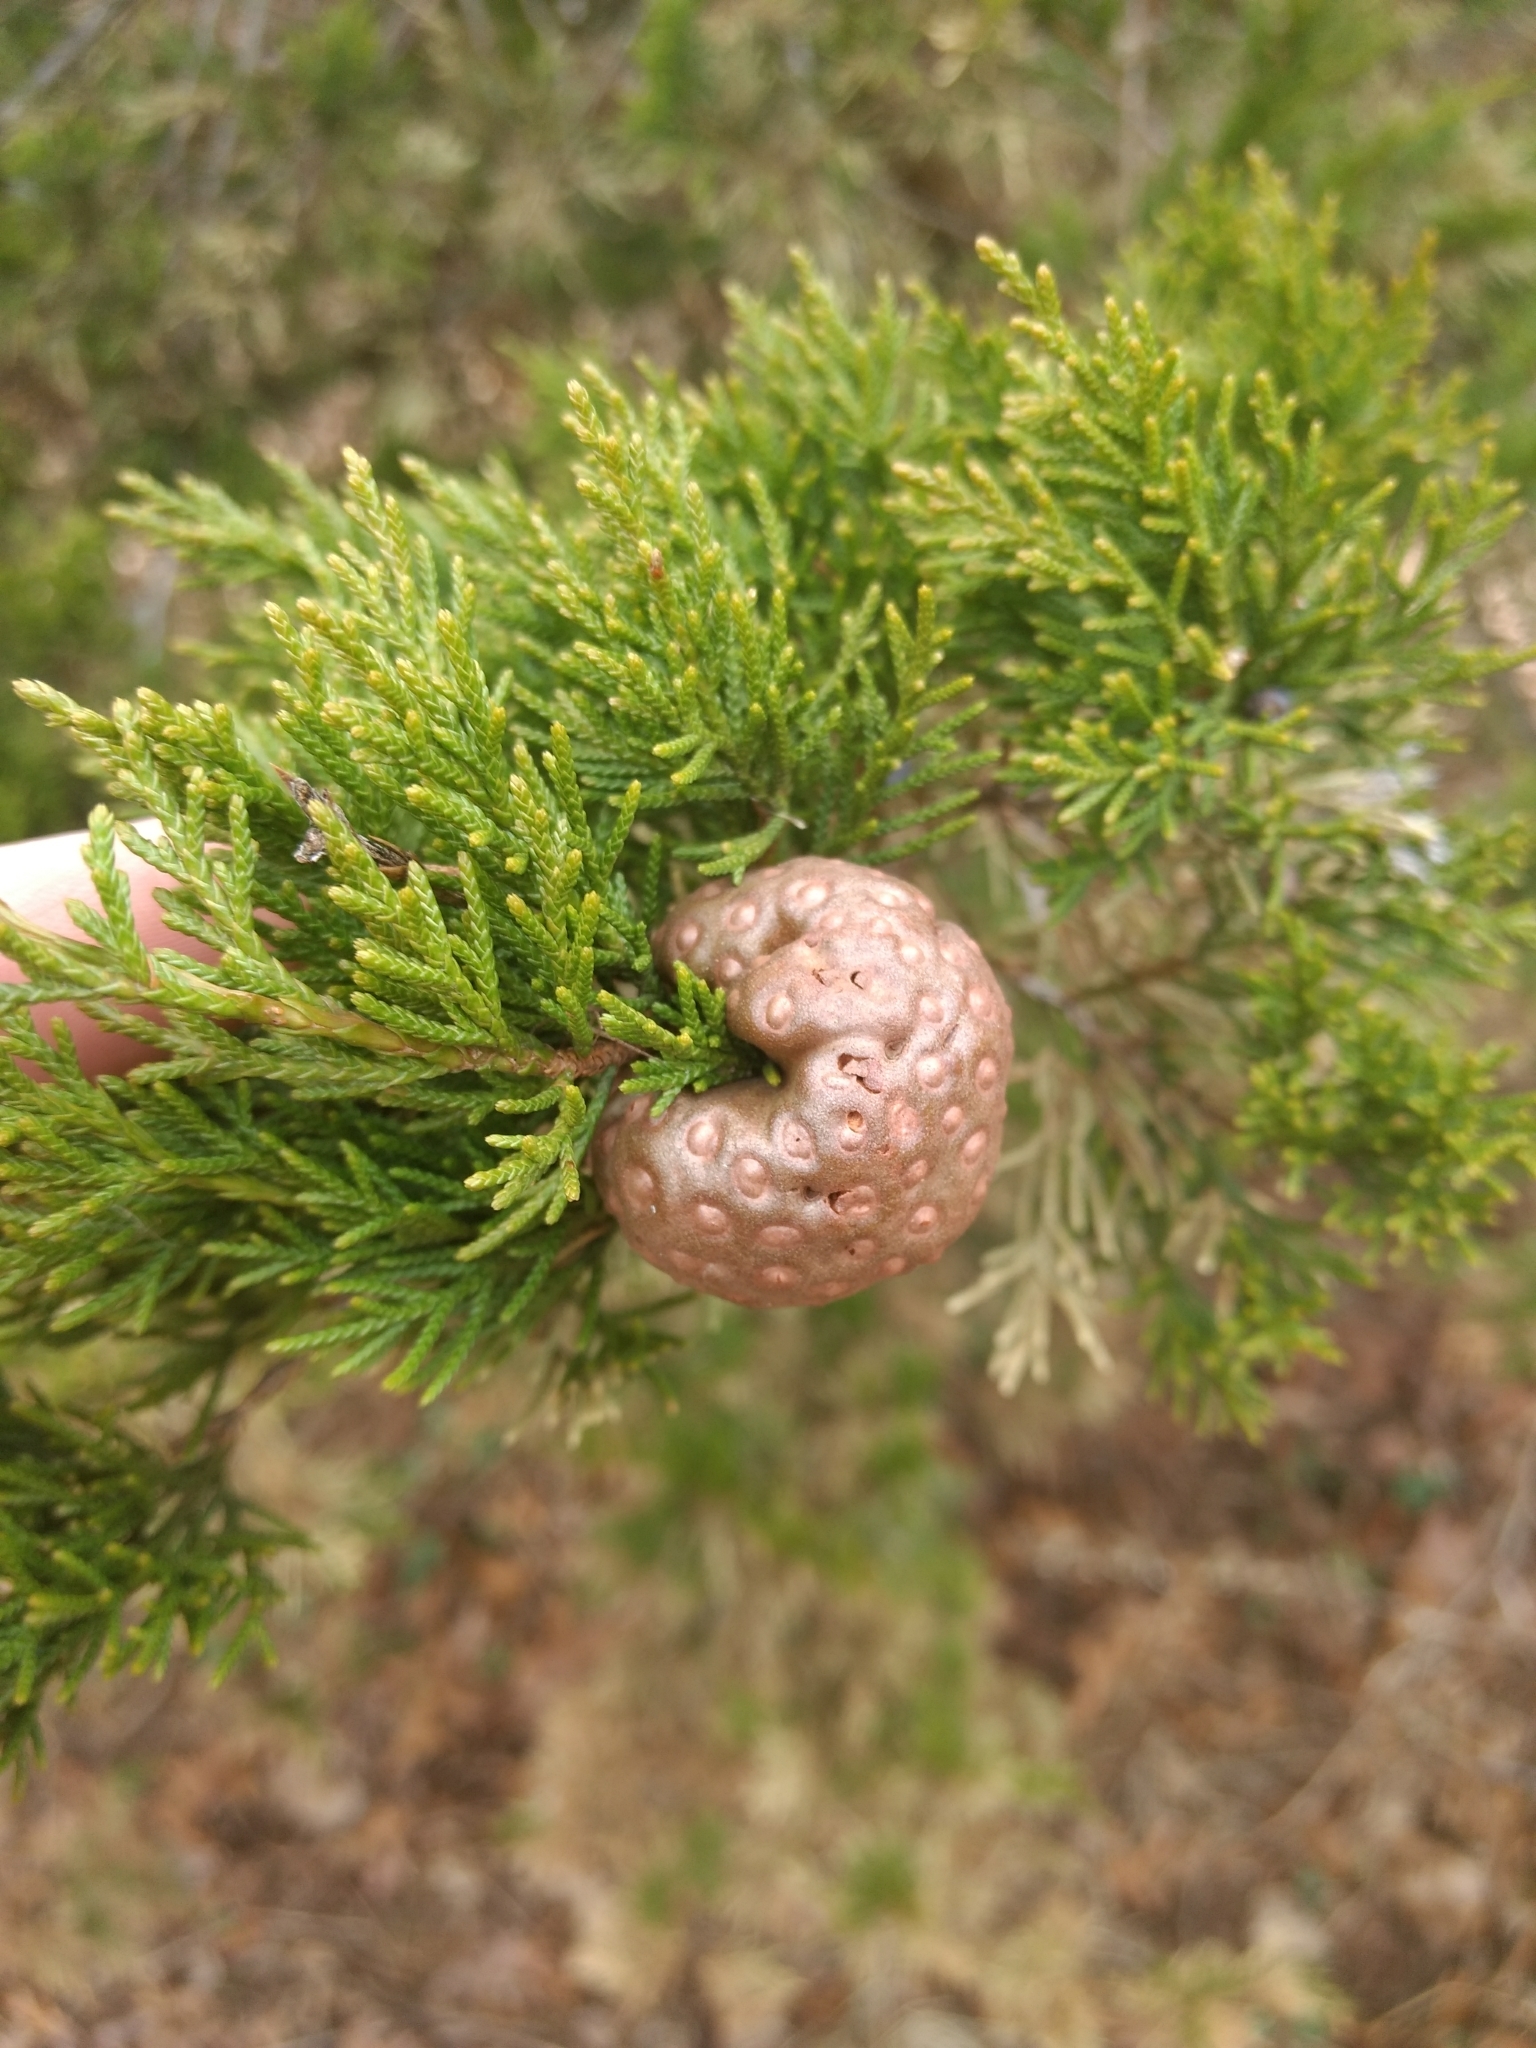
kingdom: Fungi
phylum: Basidiomycota
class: Pucciniomycetes
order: Pucciniales
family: Gymnosporangiaceae
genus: Gymnosporangium
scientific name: Gymnosporangium juniperi-virginianae
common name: Juniper-apple rust
